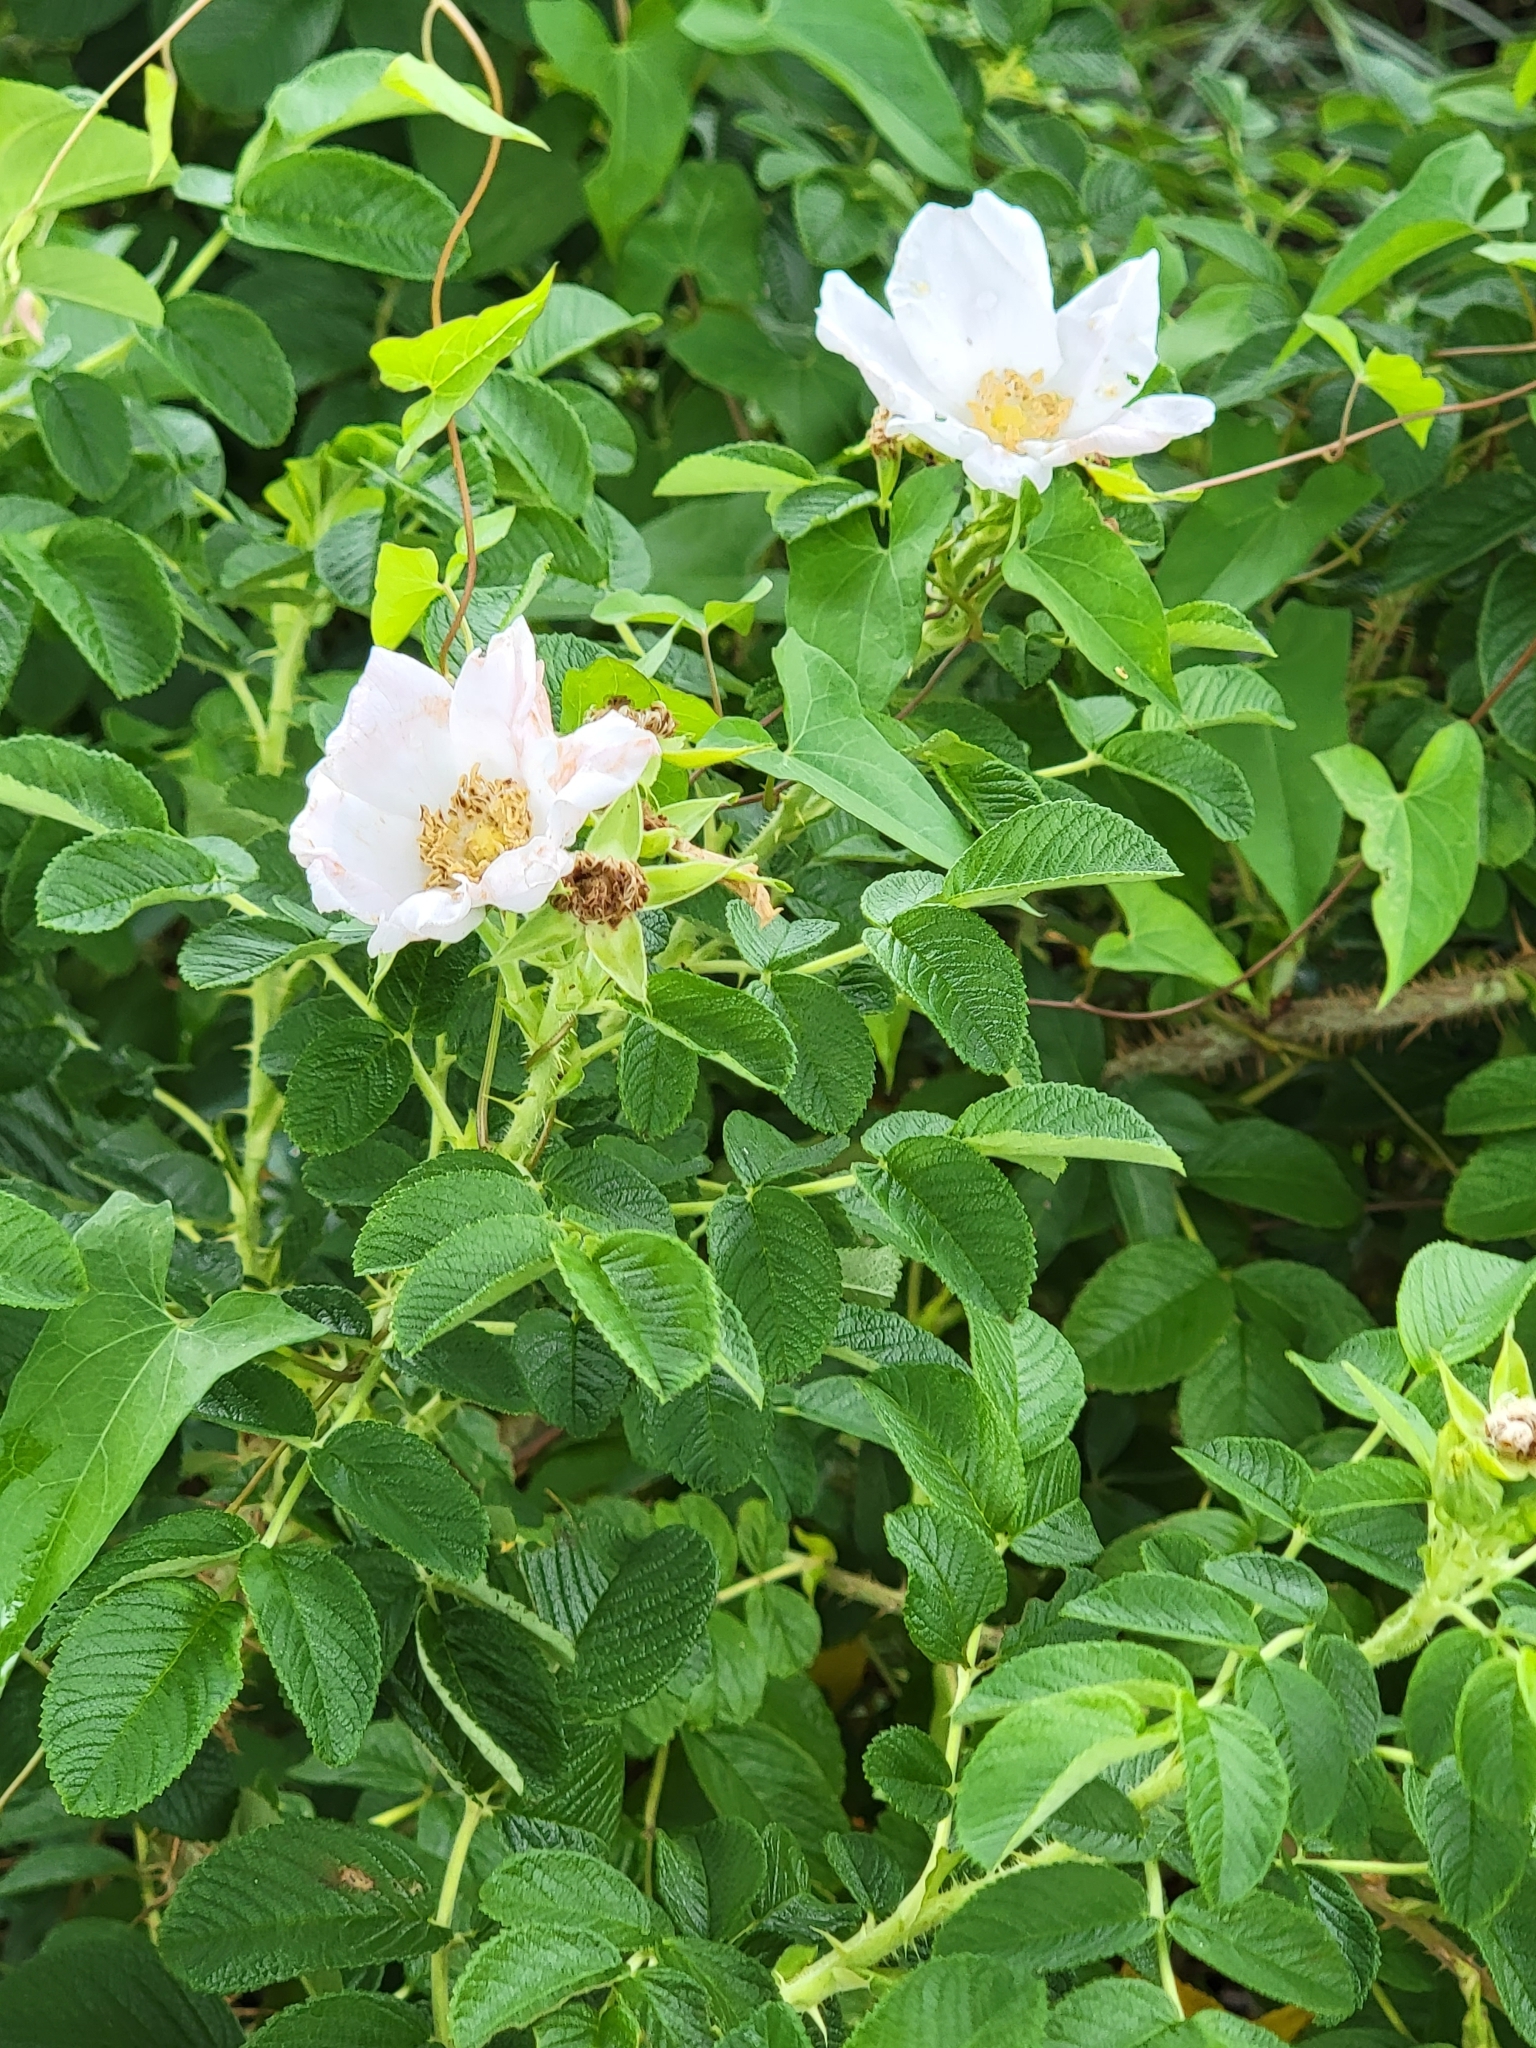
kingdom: Plantae
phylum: Tracheophyta
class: Magnoliopsida
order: Rosales
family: Rosaceae
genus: Rosa
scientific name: Rosa rugosa
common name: Japanese rose
